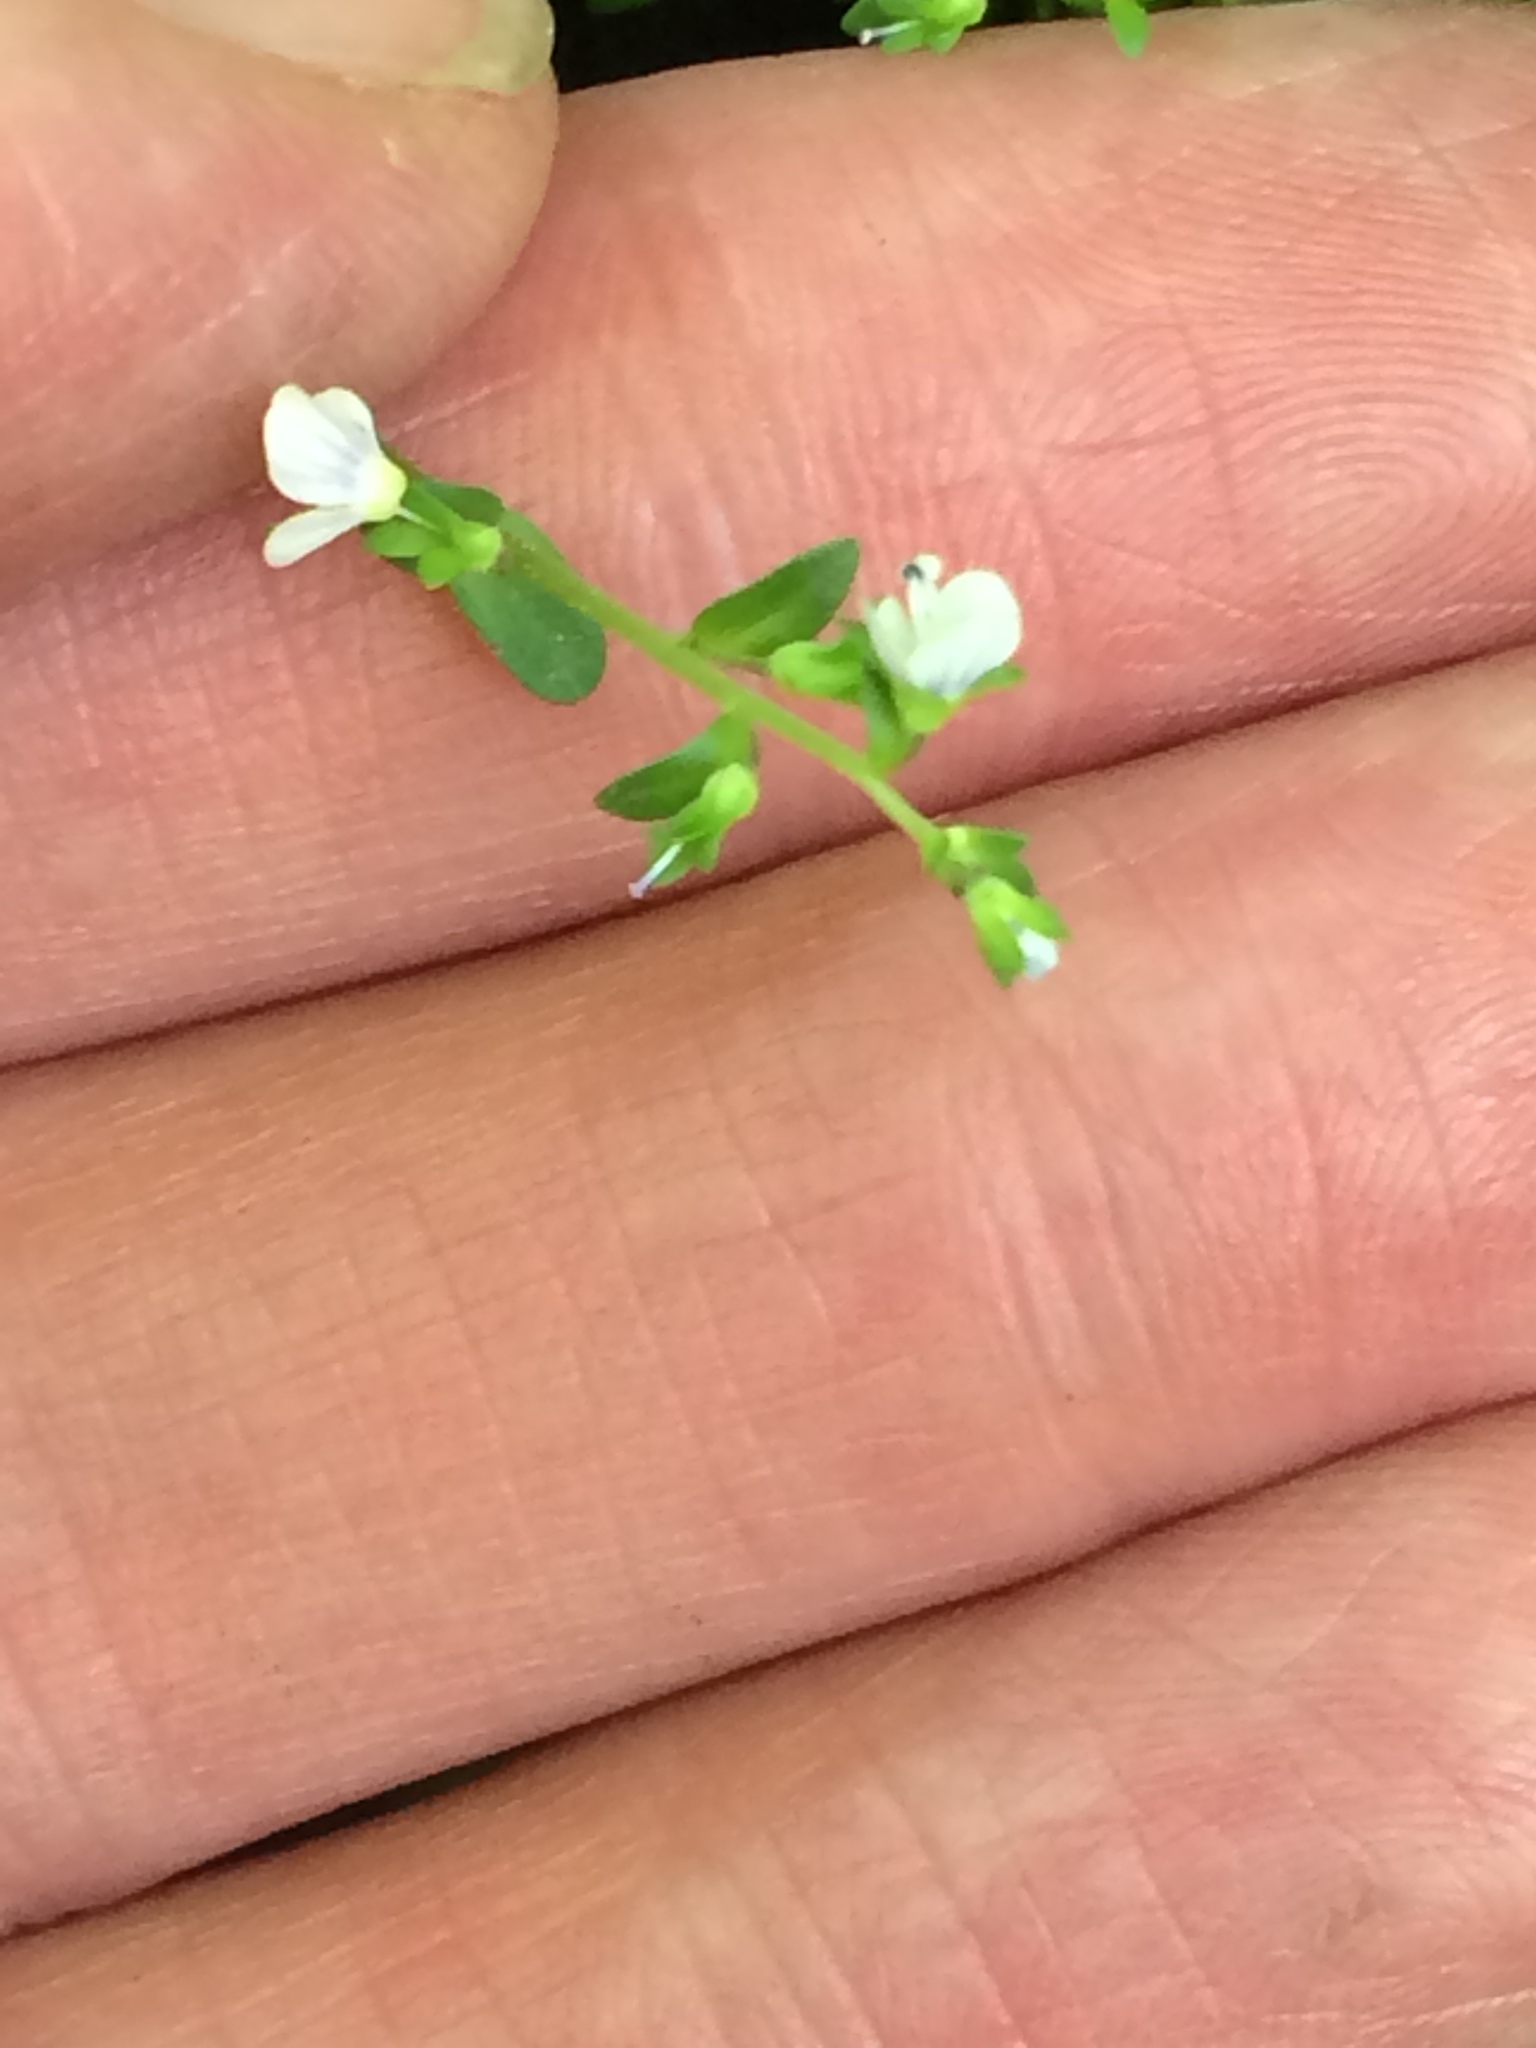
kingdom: Plantae
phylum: Tracheophyta
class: Magnoliopsida
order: Lamiales
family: Plantaginaceae
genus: Veronica
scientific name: Veronica serpyllifolia
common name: Thyme-leaved speedwell
